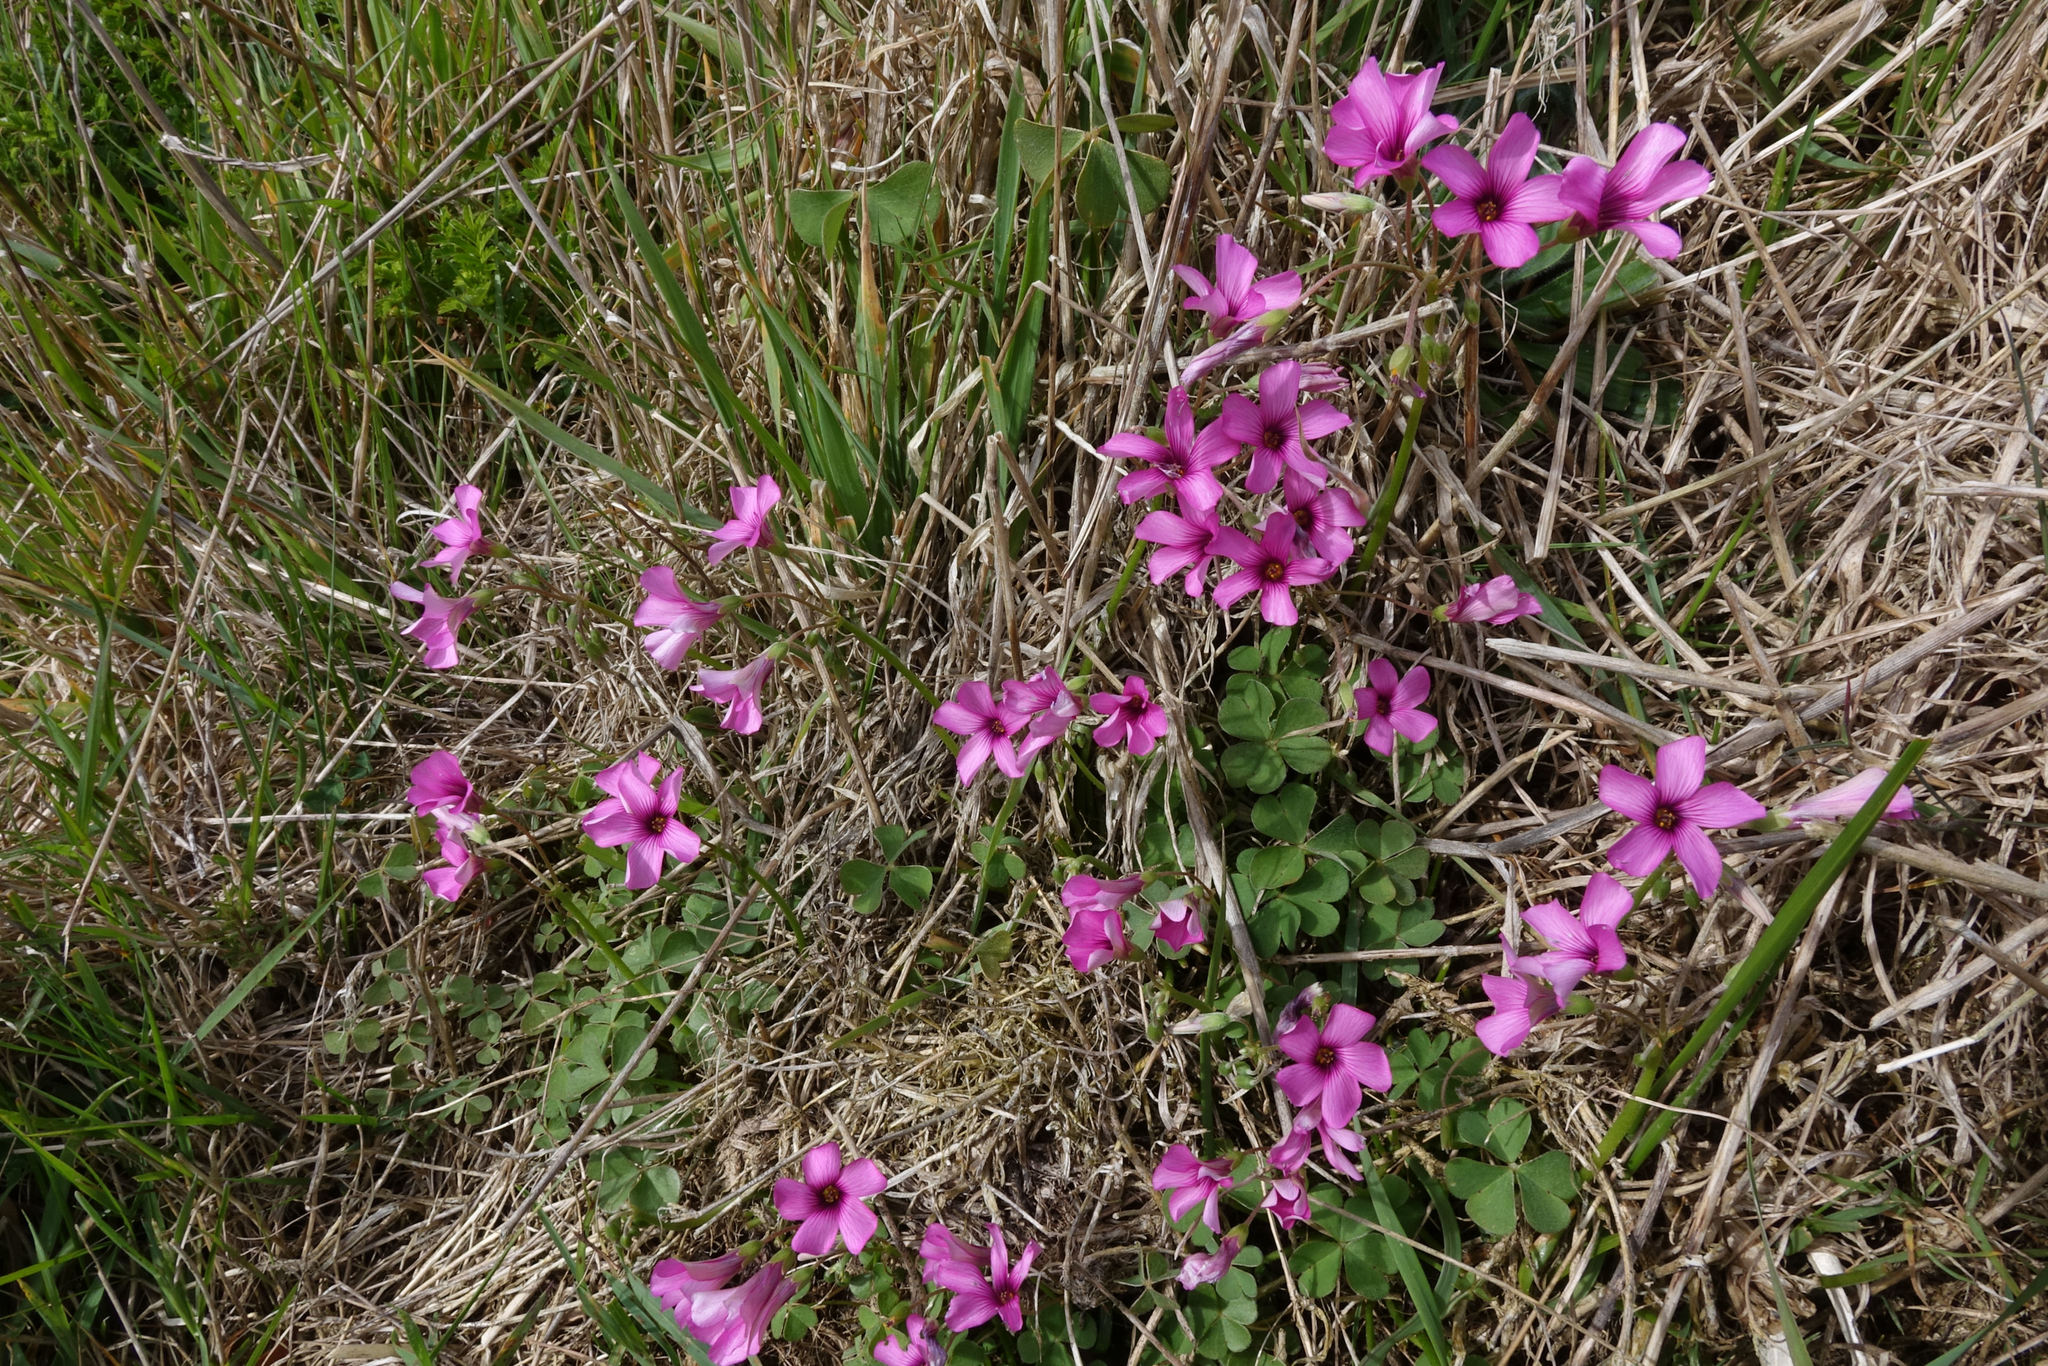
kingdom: Plantae
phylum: Tracheophyta
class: Magnoliopsida
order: Oxalidales
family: Oxalidaceae
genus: Oxalis
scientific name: Oxalis articulata
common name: Pink-sorrel
